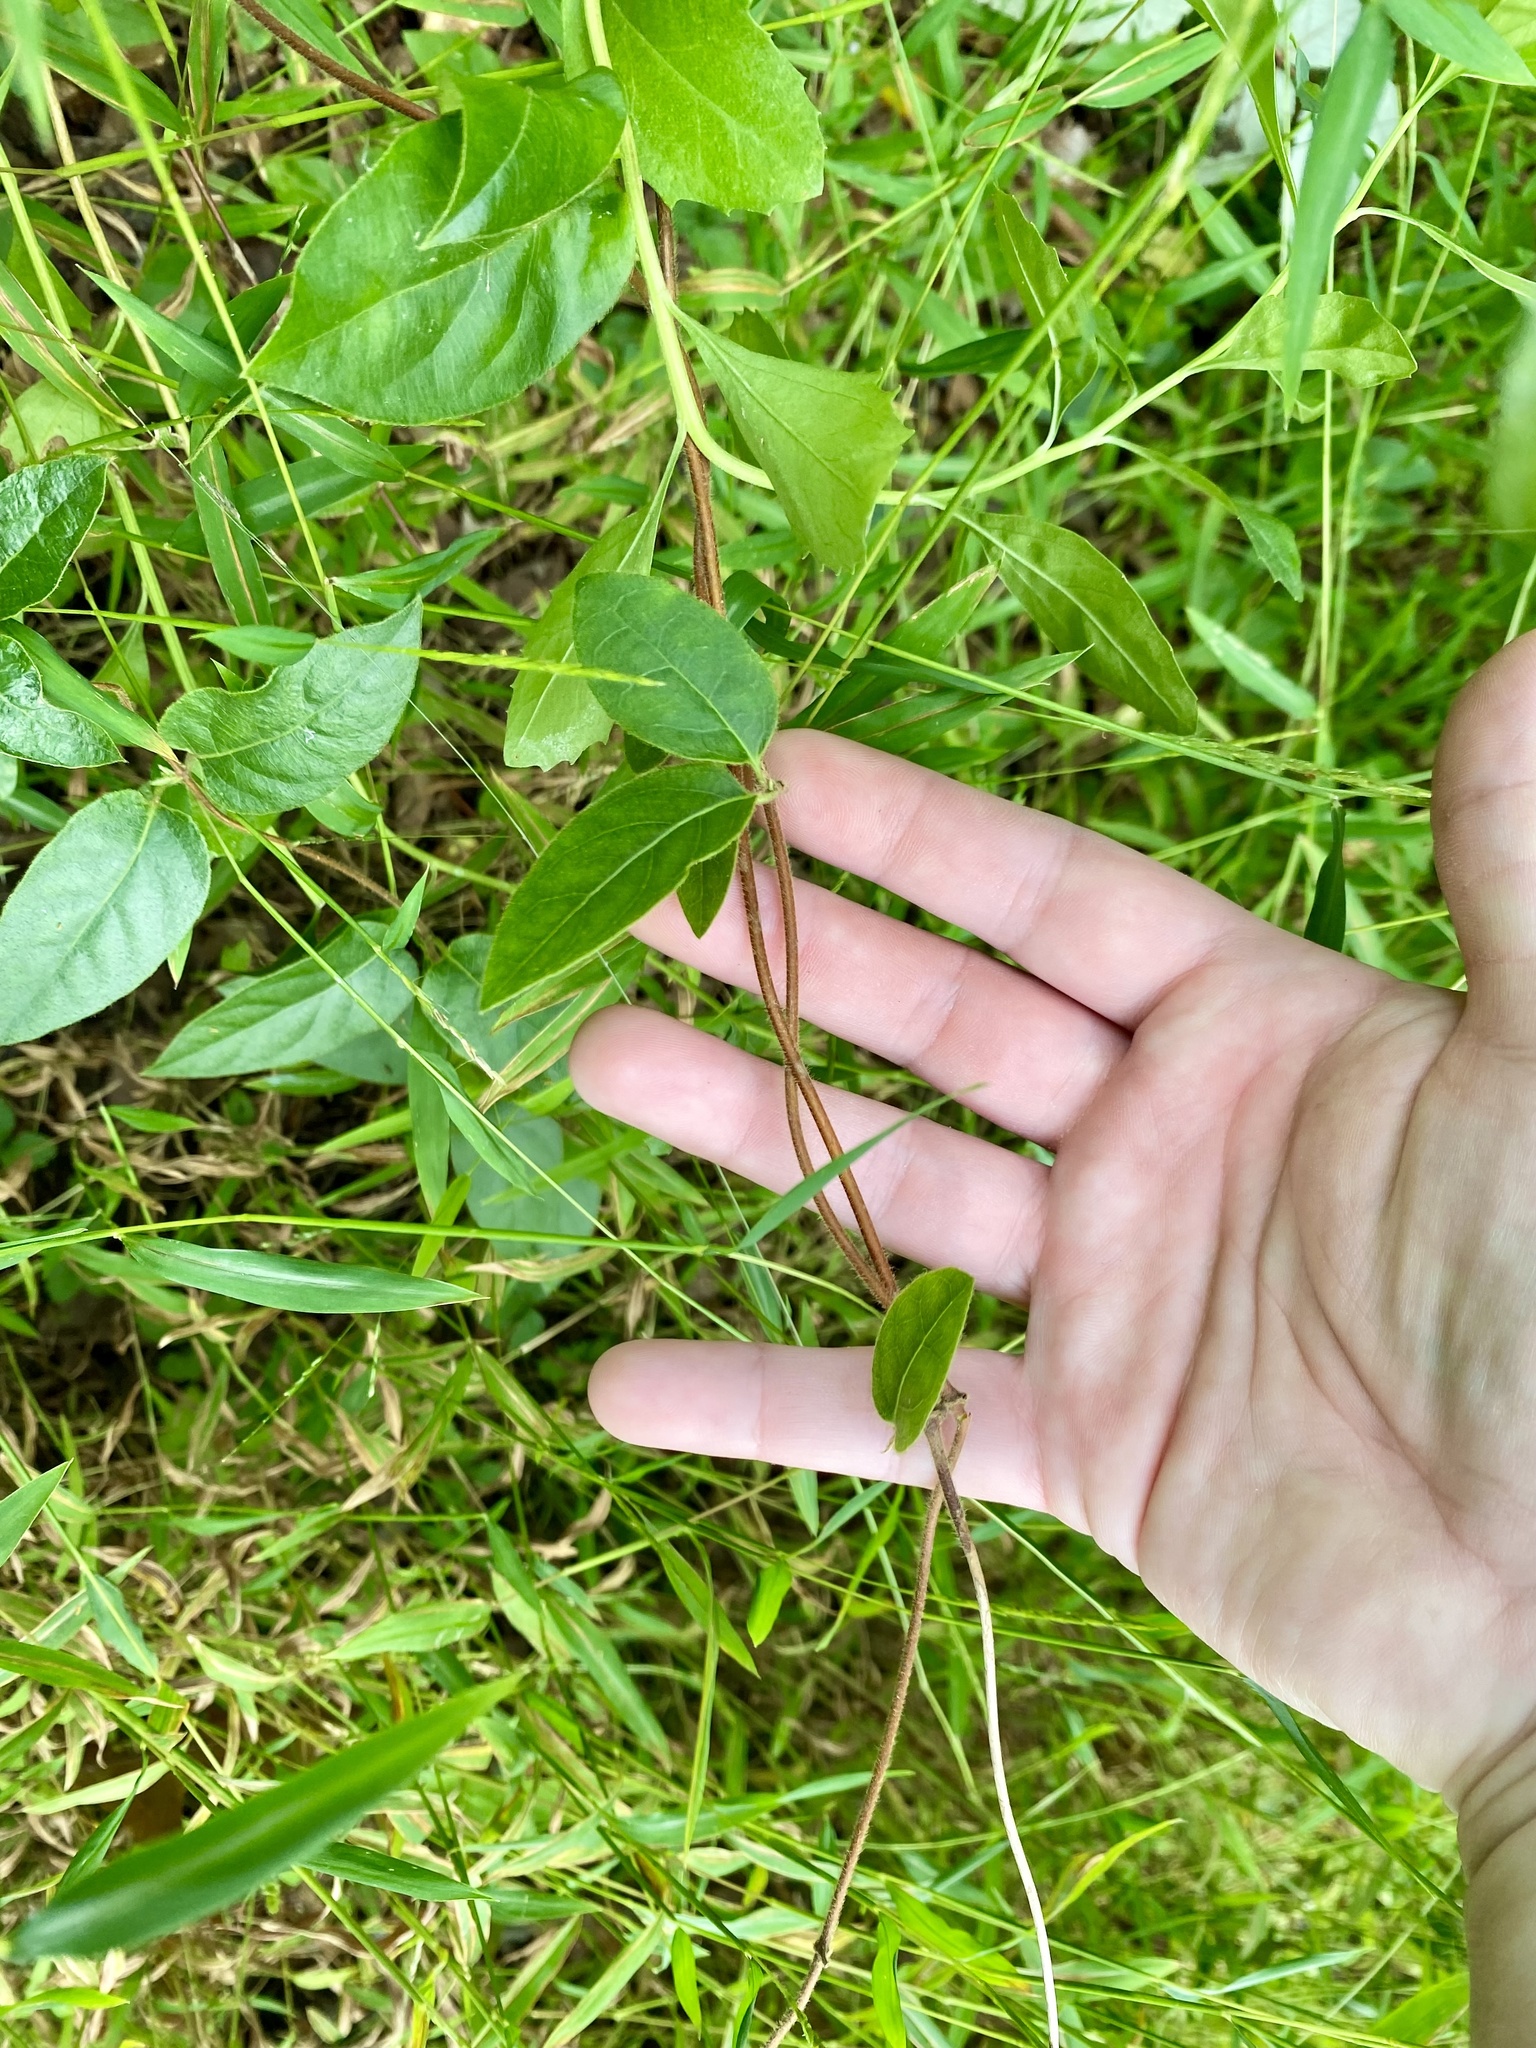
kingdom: Plantae
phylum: Tracheophyta
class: Magnoliopsida
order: Dipsacales
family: Caprifoliaceae
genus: Lonicera
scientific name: Lonicera japonica
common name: Japanese honeysuckle
